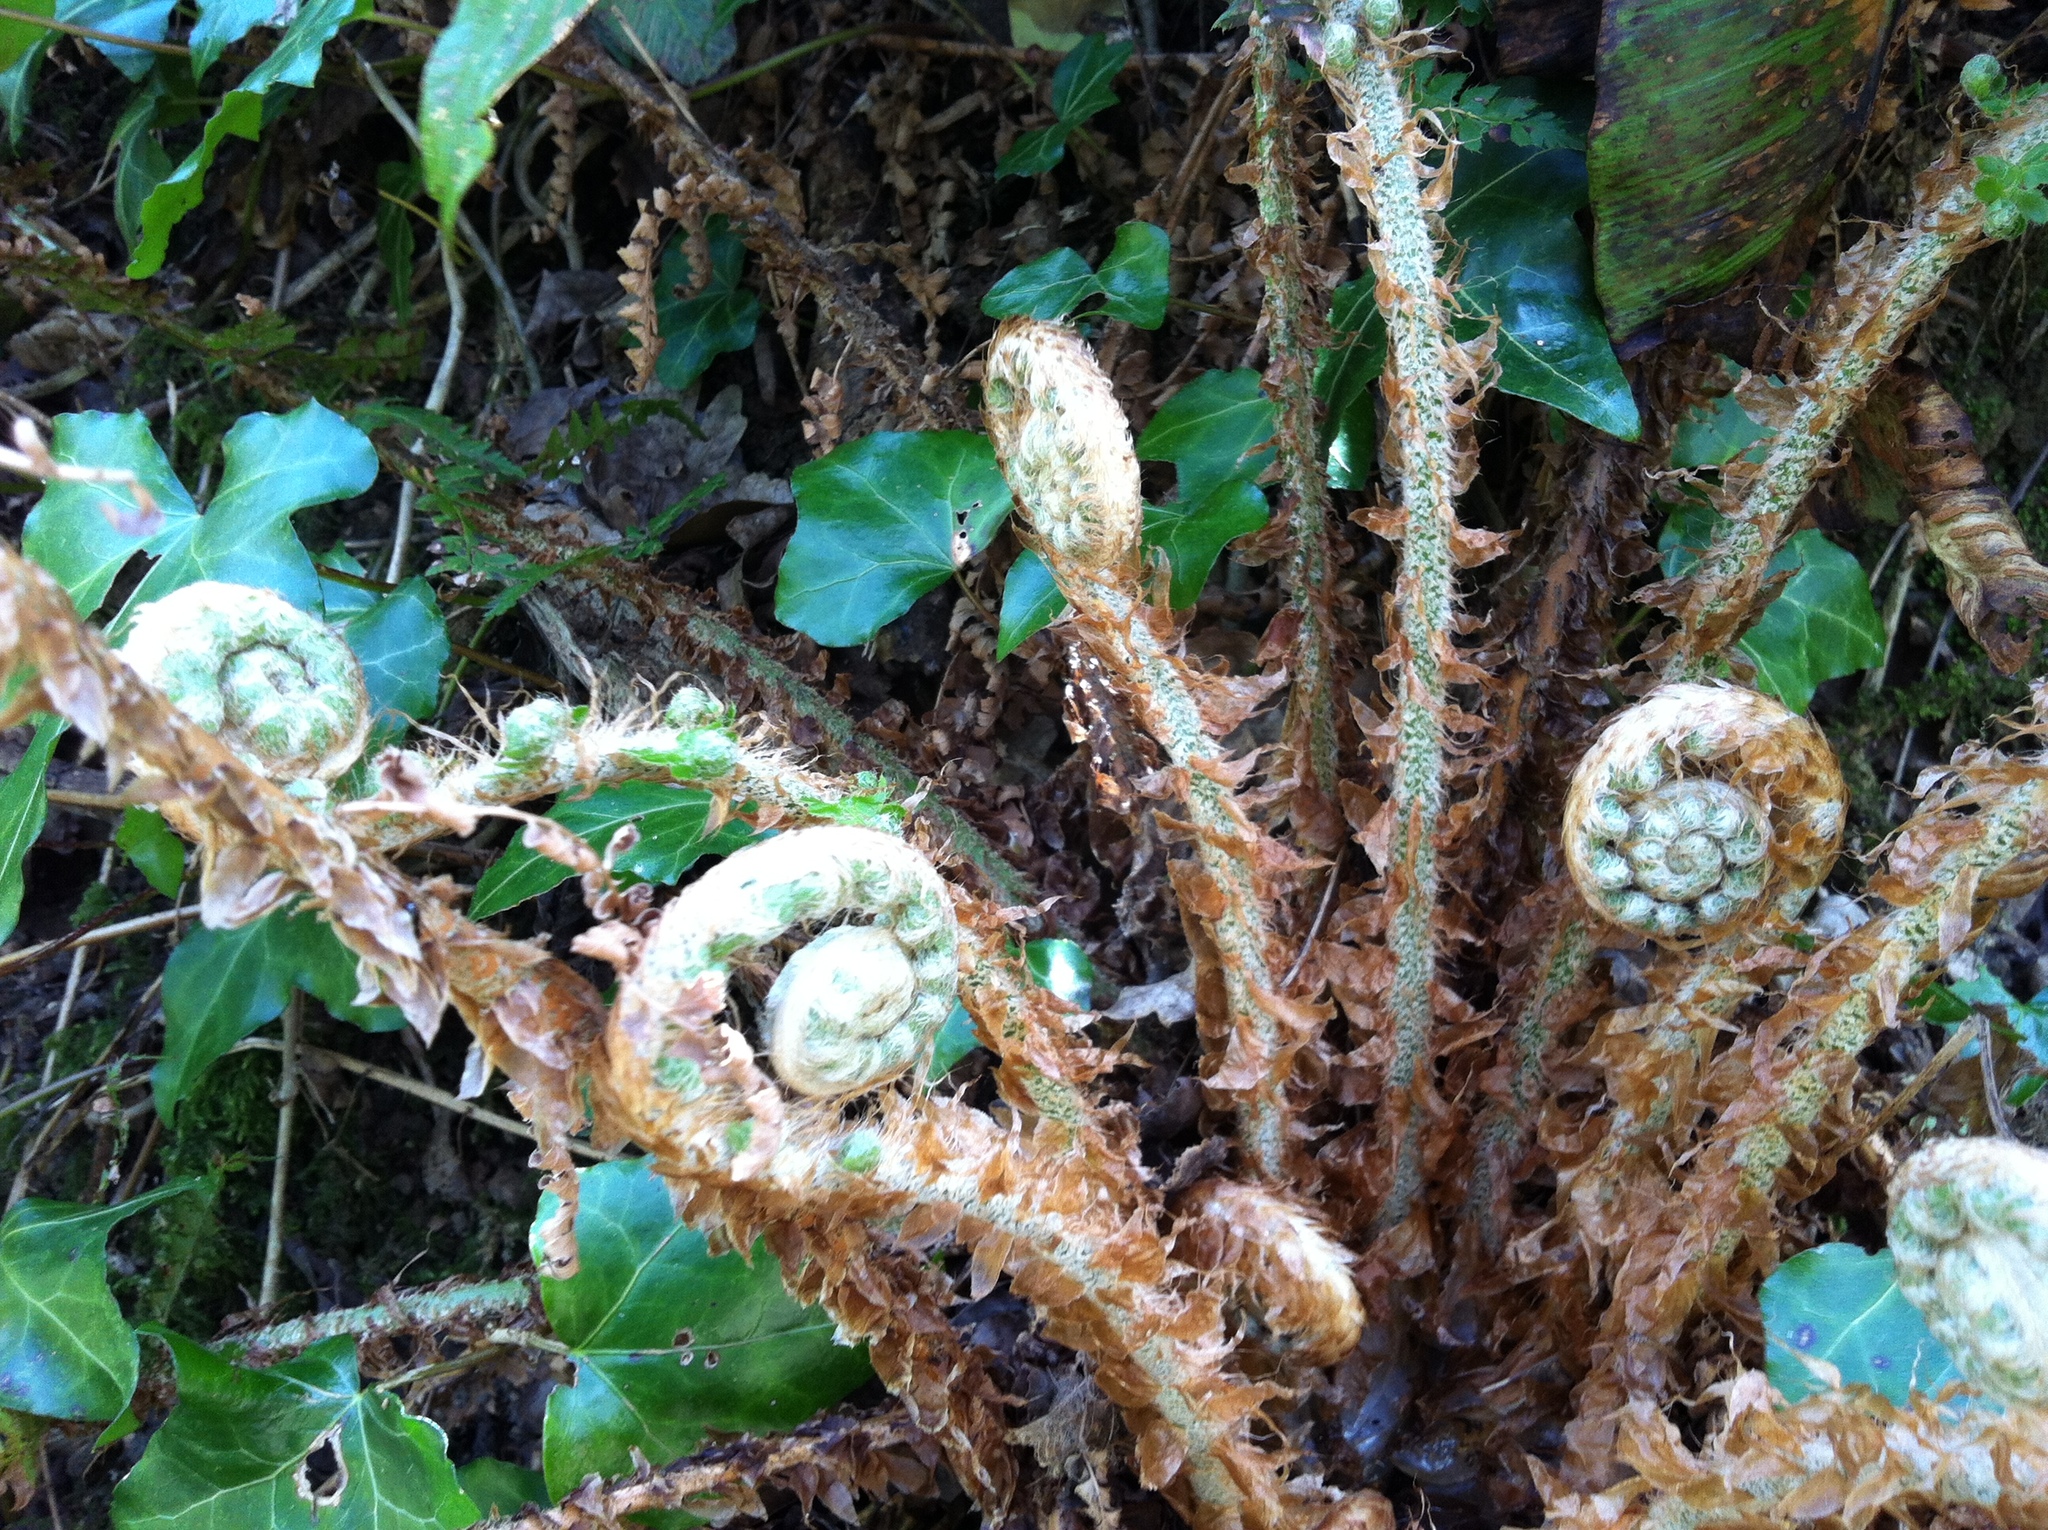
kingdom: Plantae
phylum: Tracheophyta
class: Polypodiopsida
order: Polypodiales
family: Dryopteridaceae
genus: Polystichum
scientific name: Polystichum setiferum
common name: Soft shield-fern
